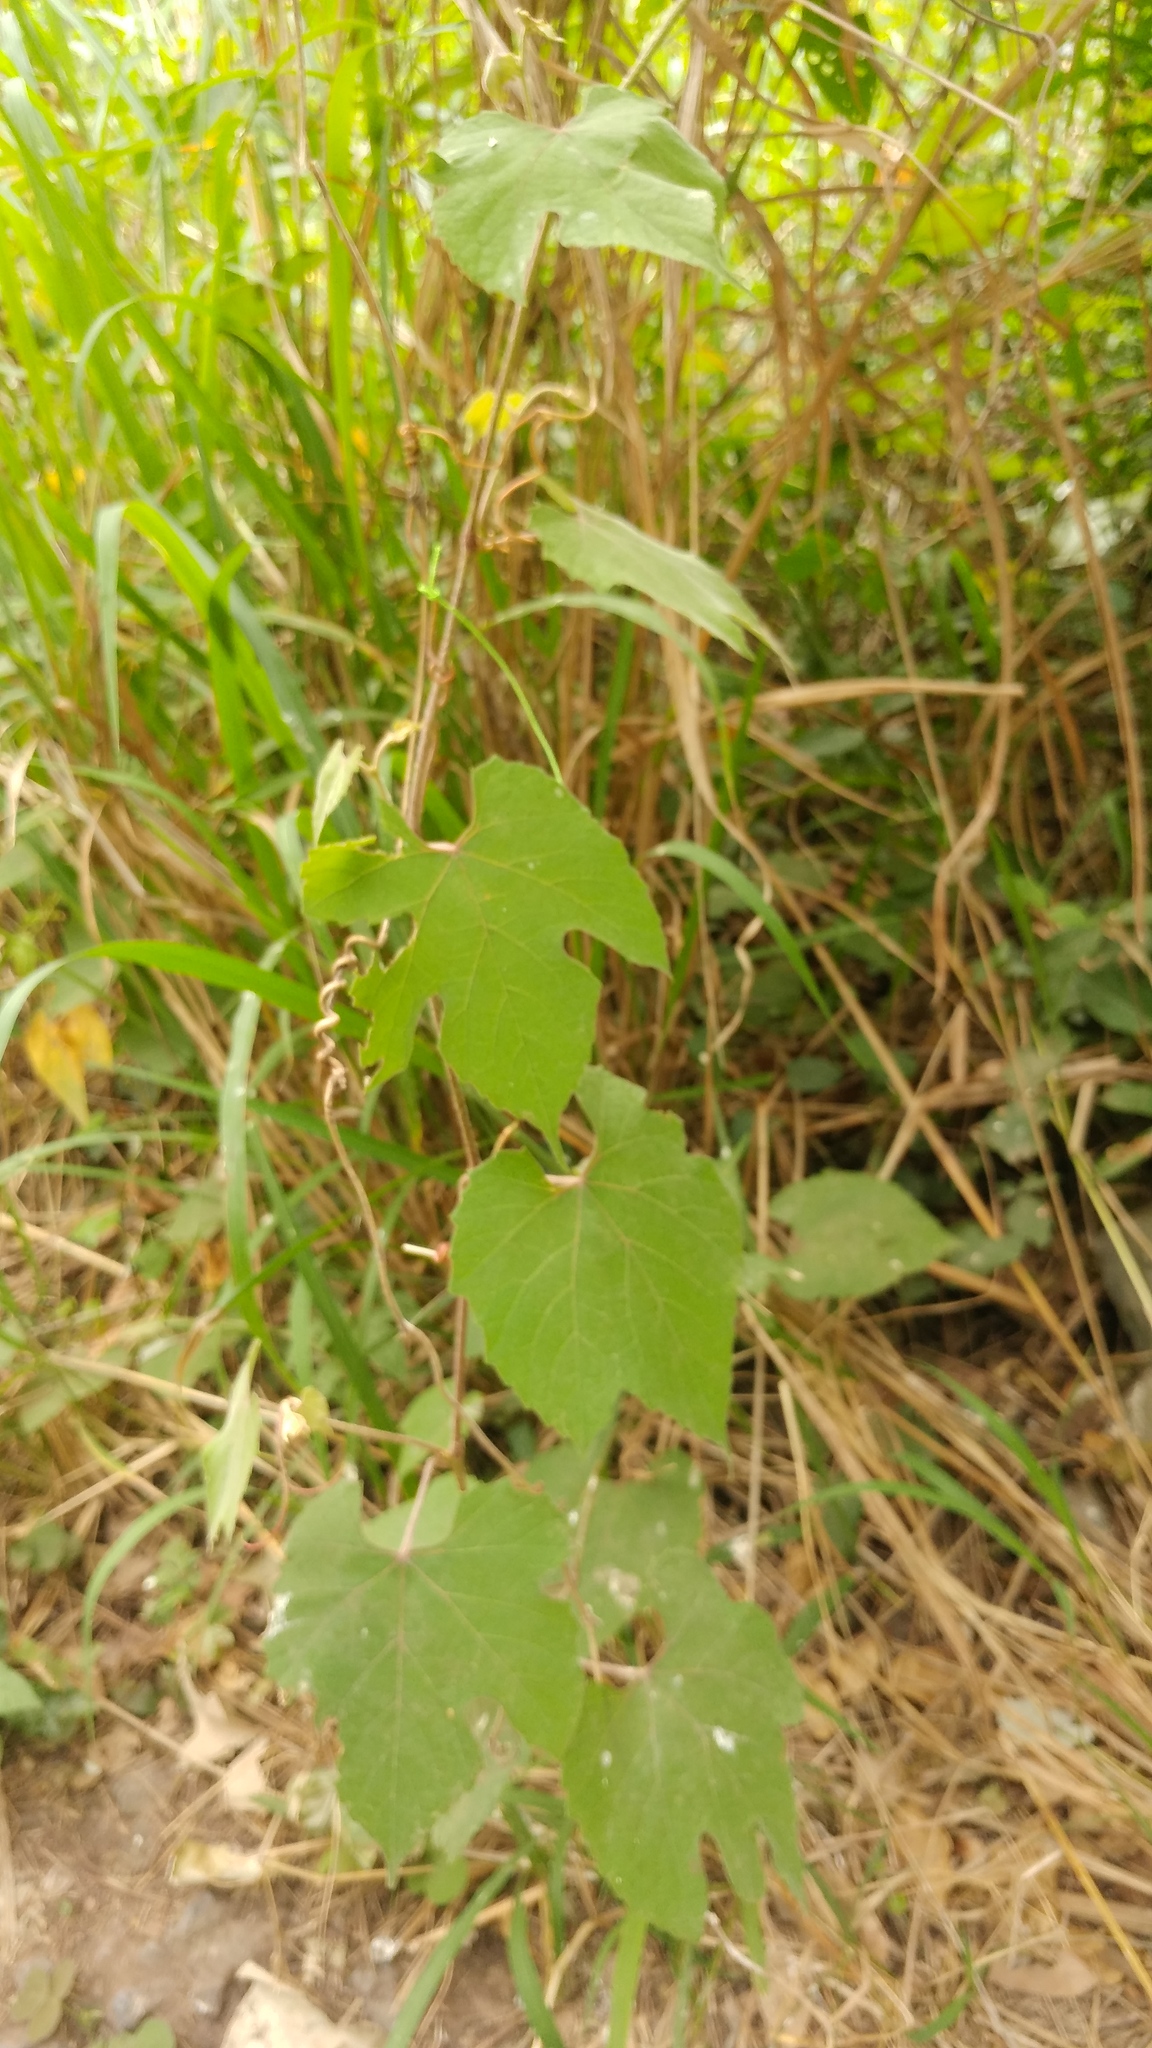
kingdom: Plantae
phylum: Tracheophyta
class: Magnoliopsida
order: Vitales
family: Vitaceae
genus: Vitis
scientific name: Vitis cinerea
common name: Ashy grape
